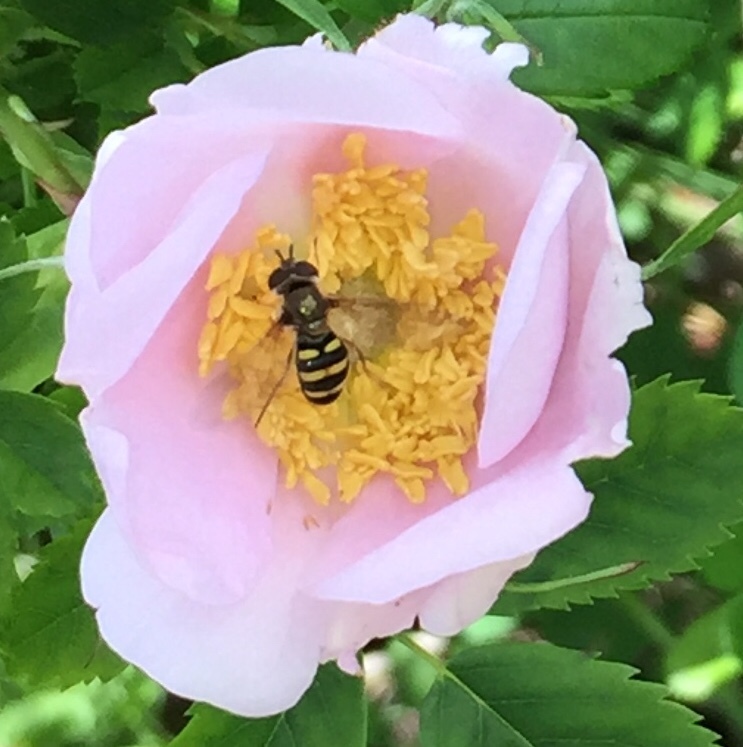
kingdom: Animalia
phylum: Arthropoda
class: Insecta
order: Diptera
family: Syrphidae
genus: Eupeodes
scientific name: Eupeodes
